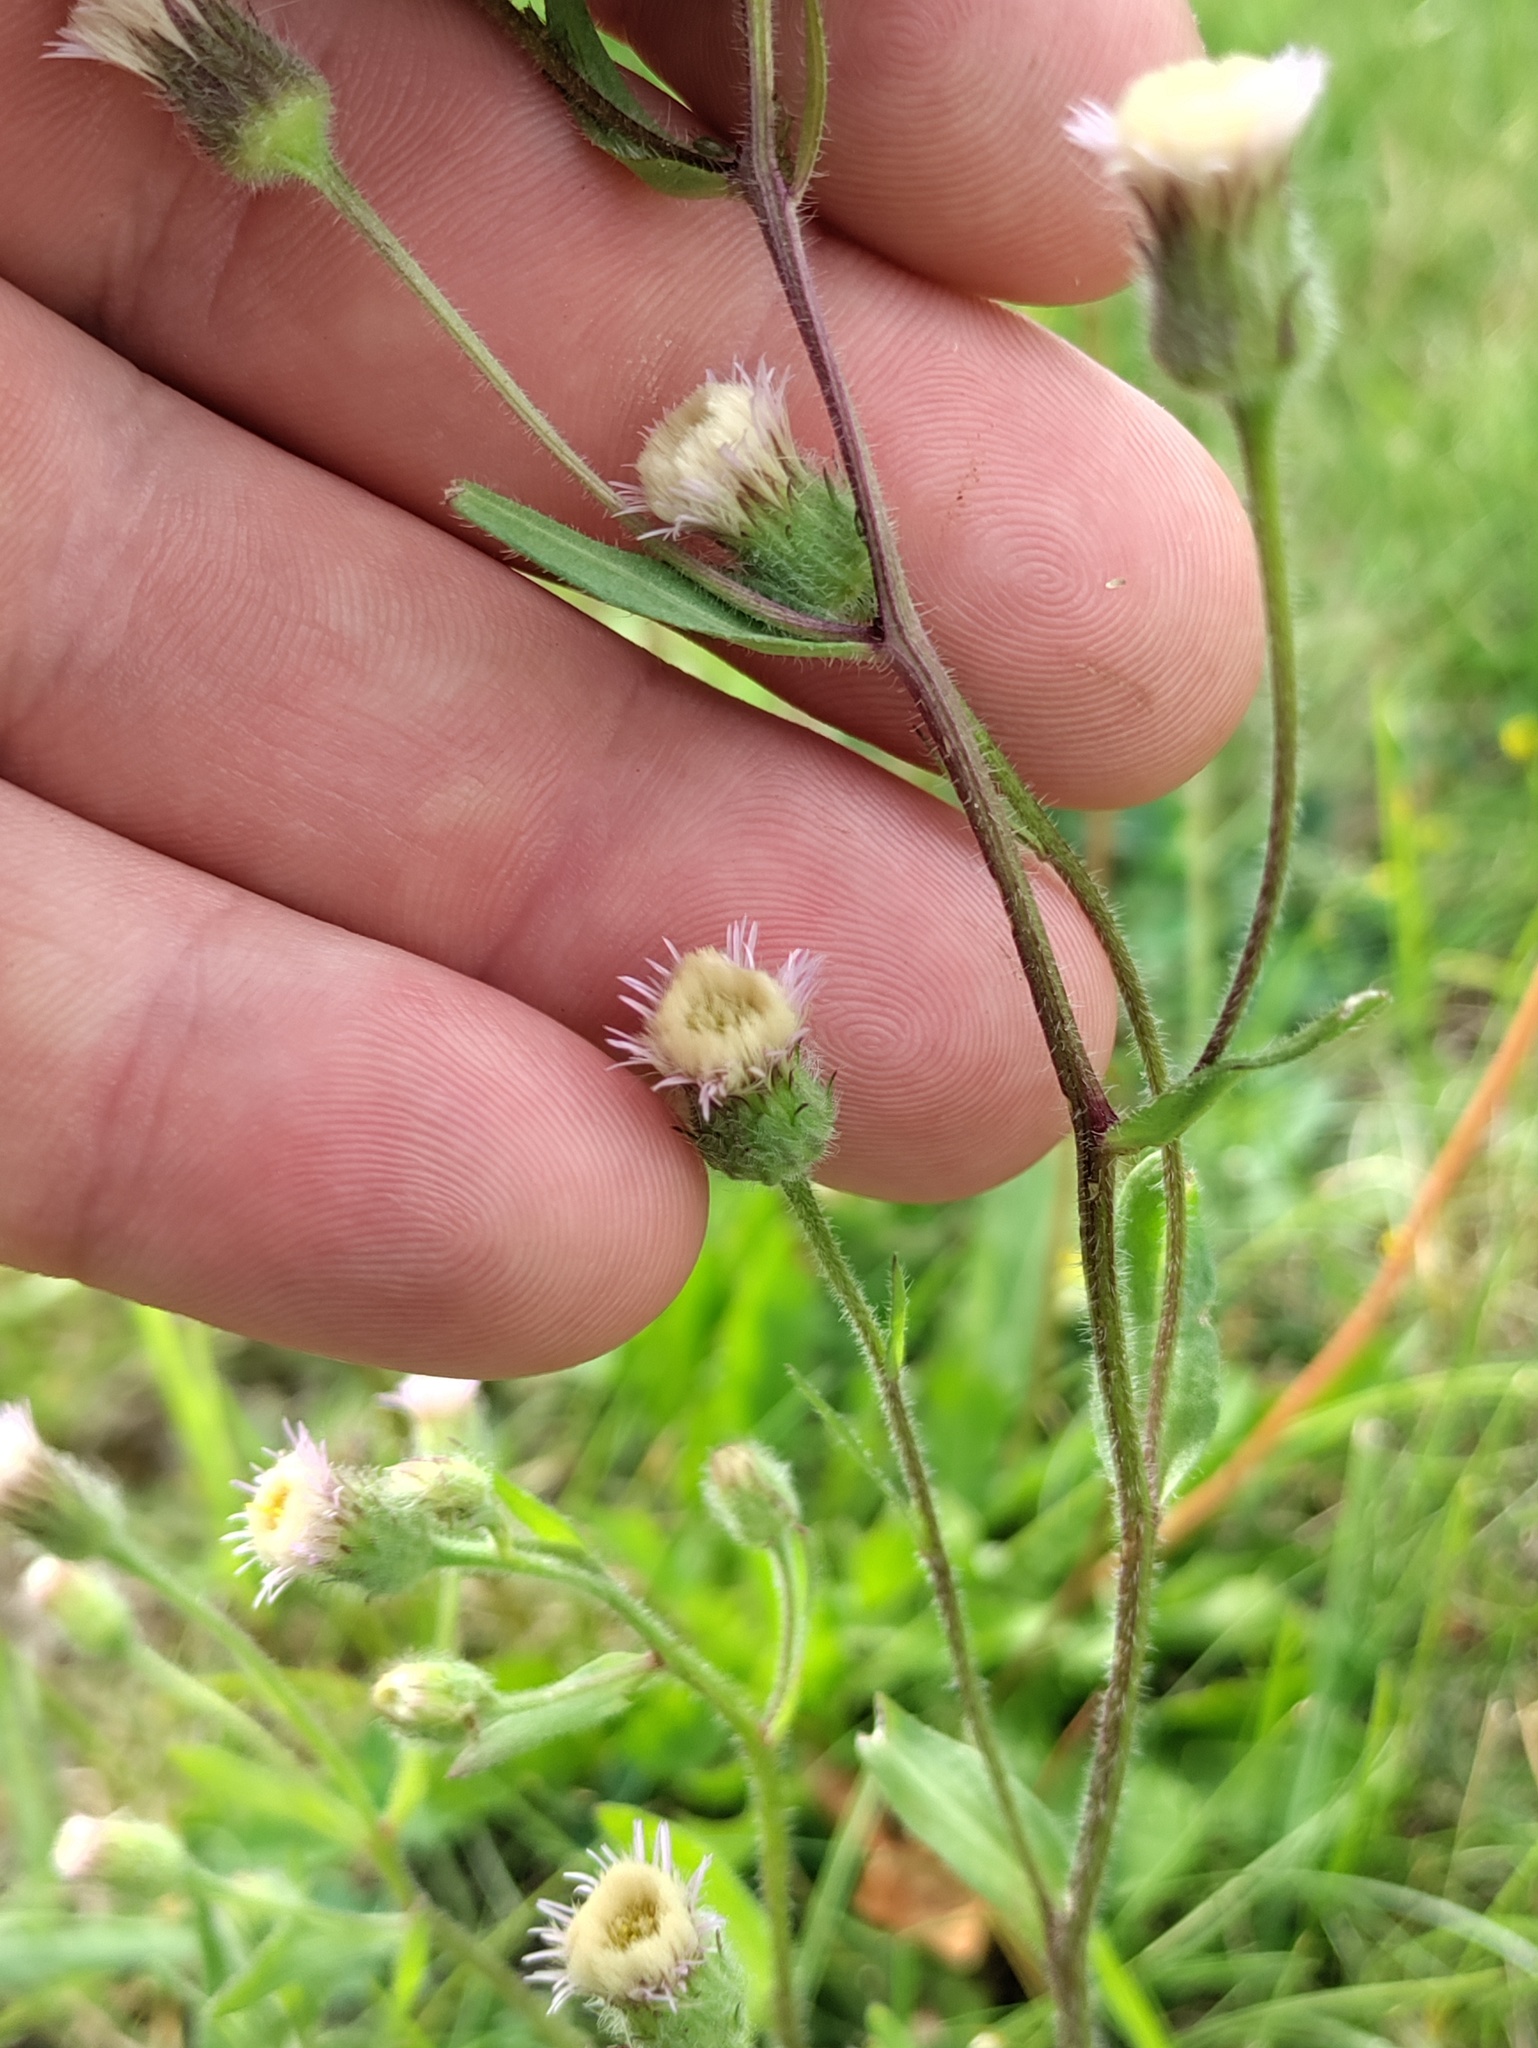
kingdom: Plantae
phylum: Tracheophyta
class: Magnoliopsida
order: Asterales
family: Asteraceae
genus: Erigeron
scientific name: Erigeron acris
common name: Blue fleabane
